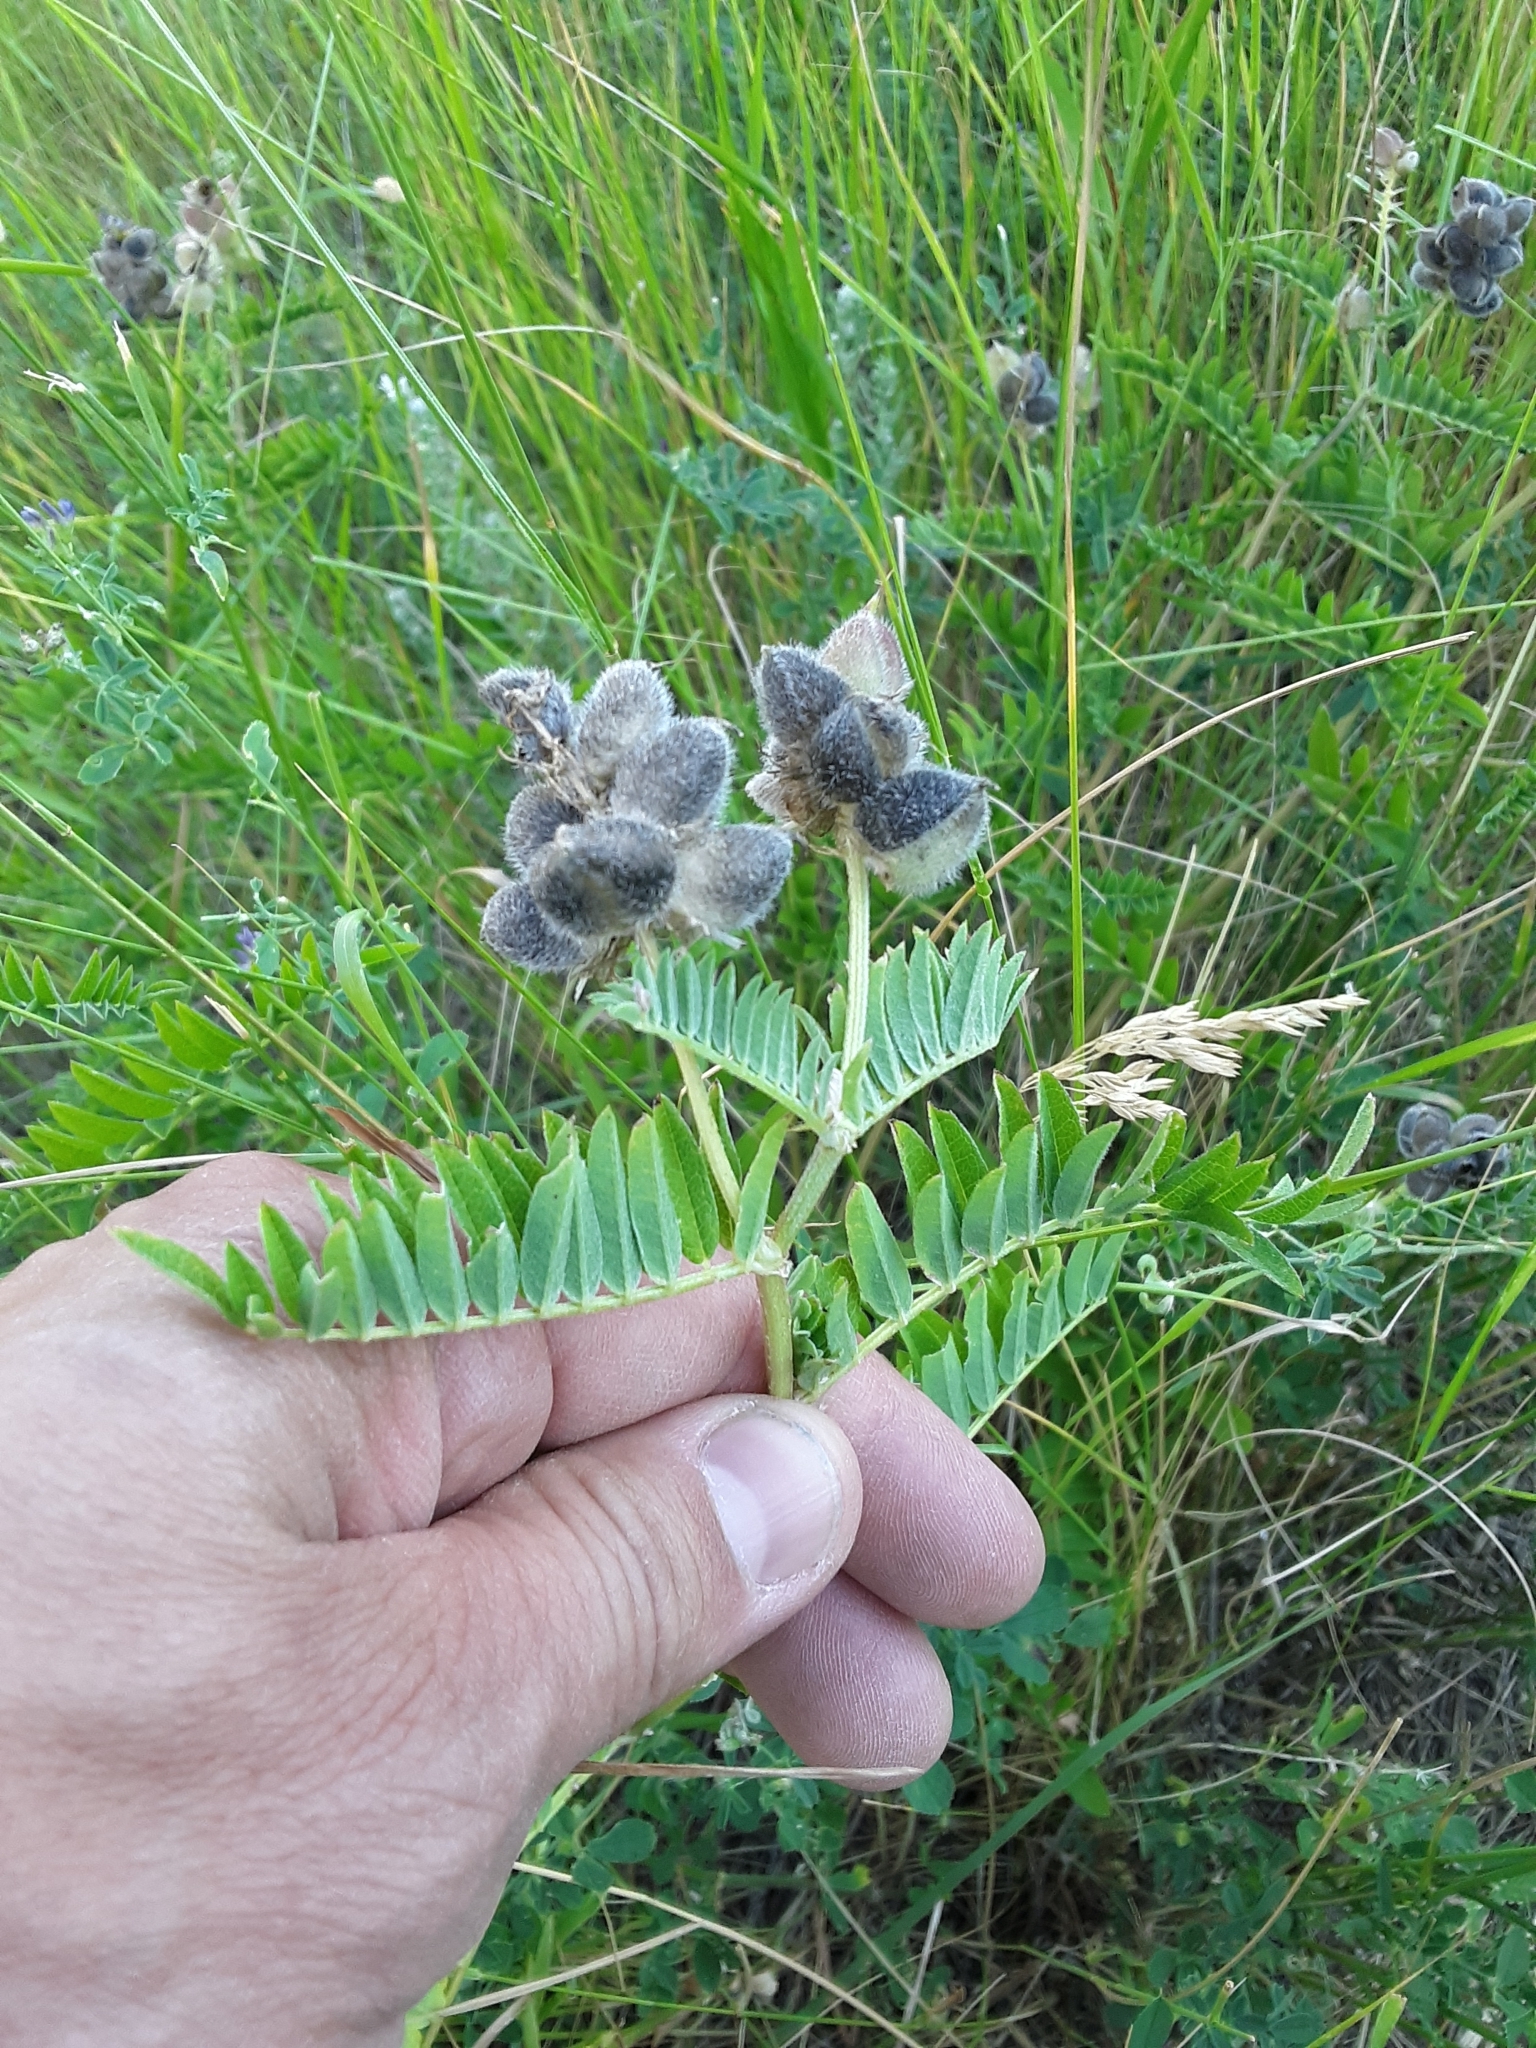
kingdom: Plantae
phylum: Tracheophyta
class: Magnoliopsida
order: Fabales
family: Fabaceae
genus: Astragalus
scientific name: Astragalus cicer
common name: Chick-pea milk-vetch
